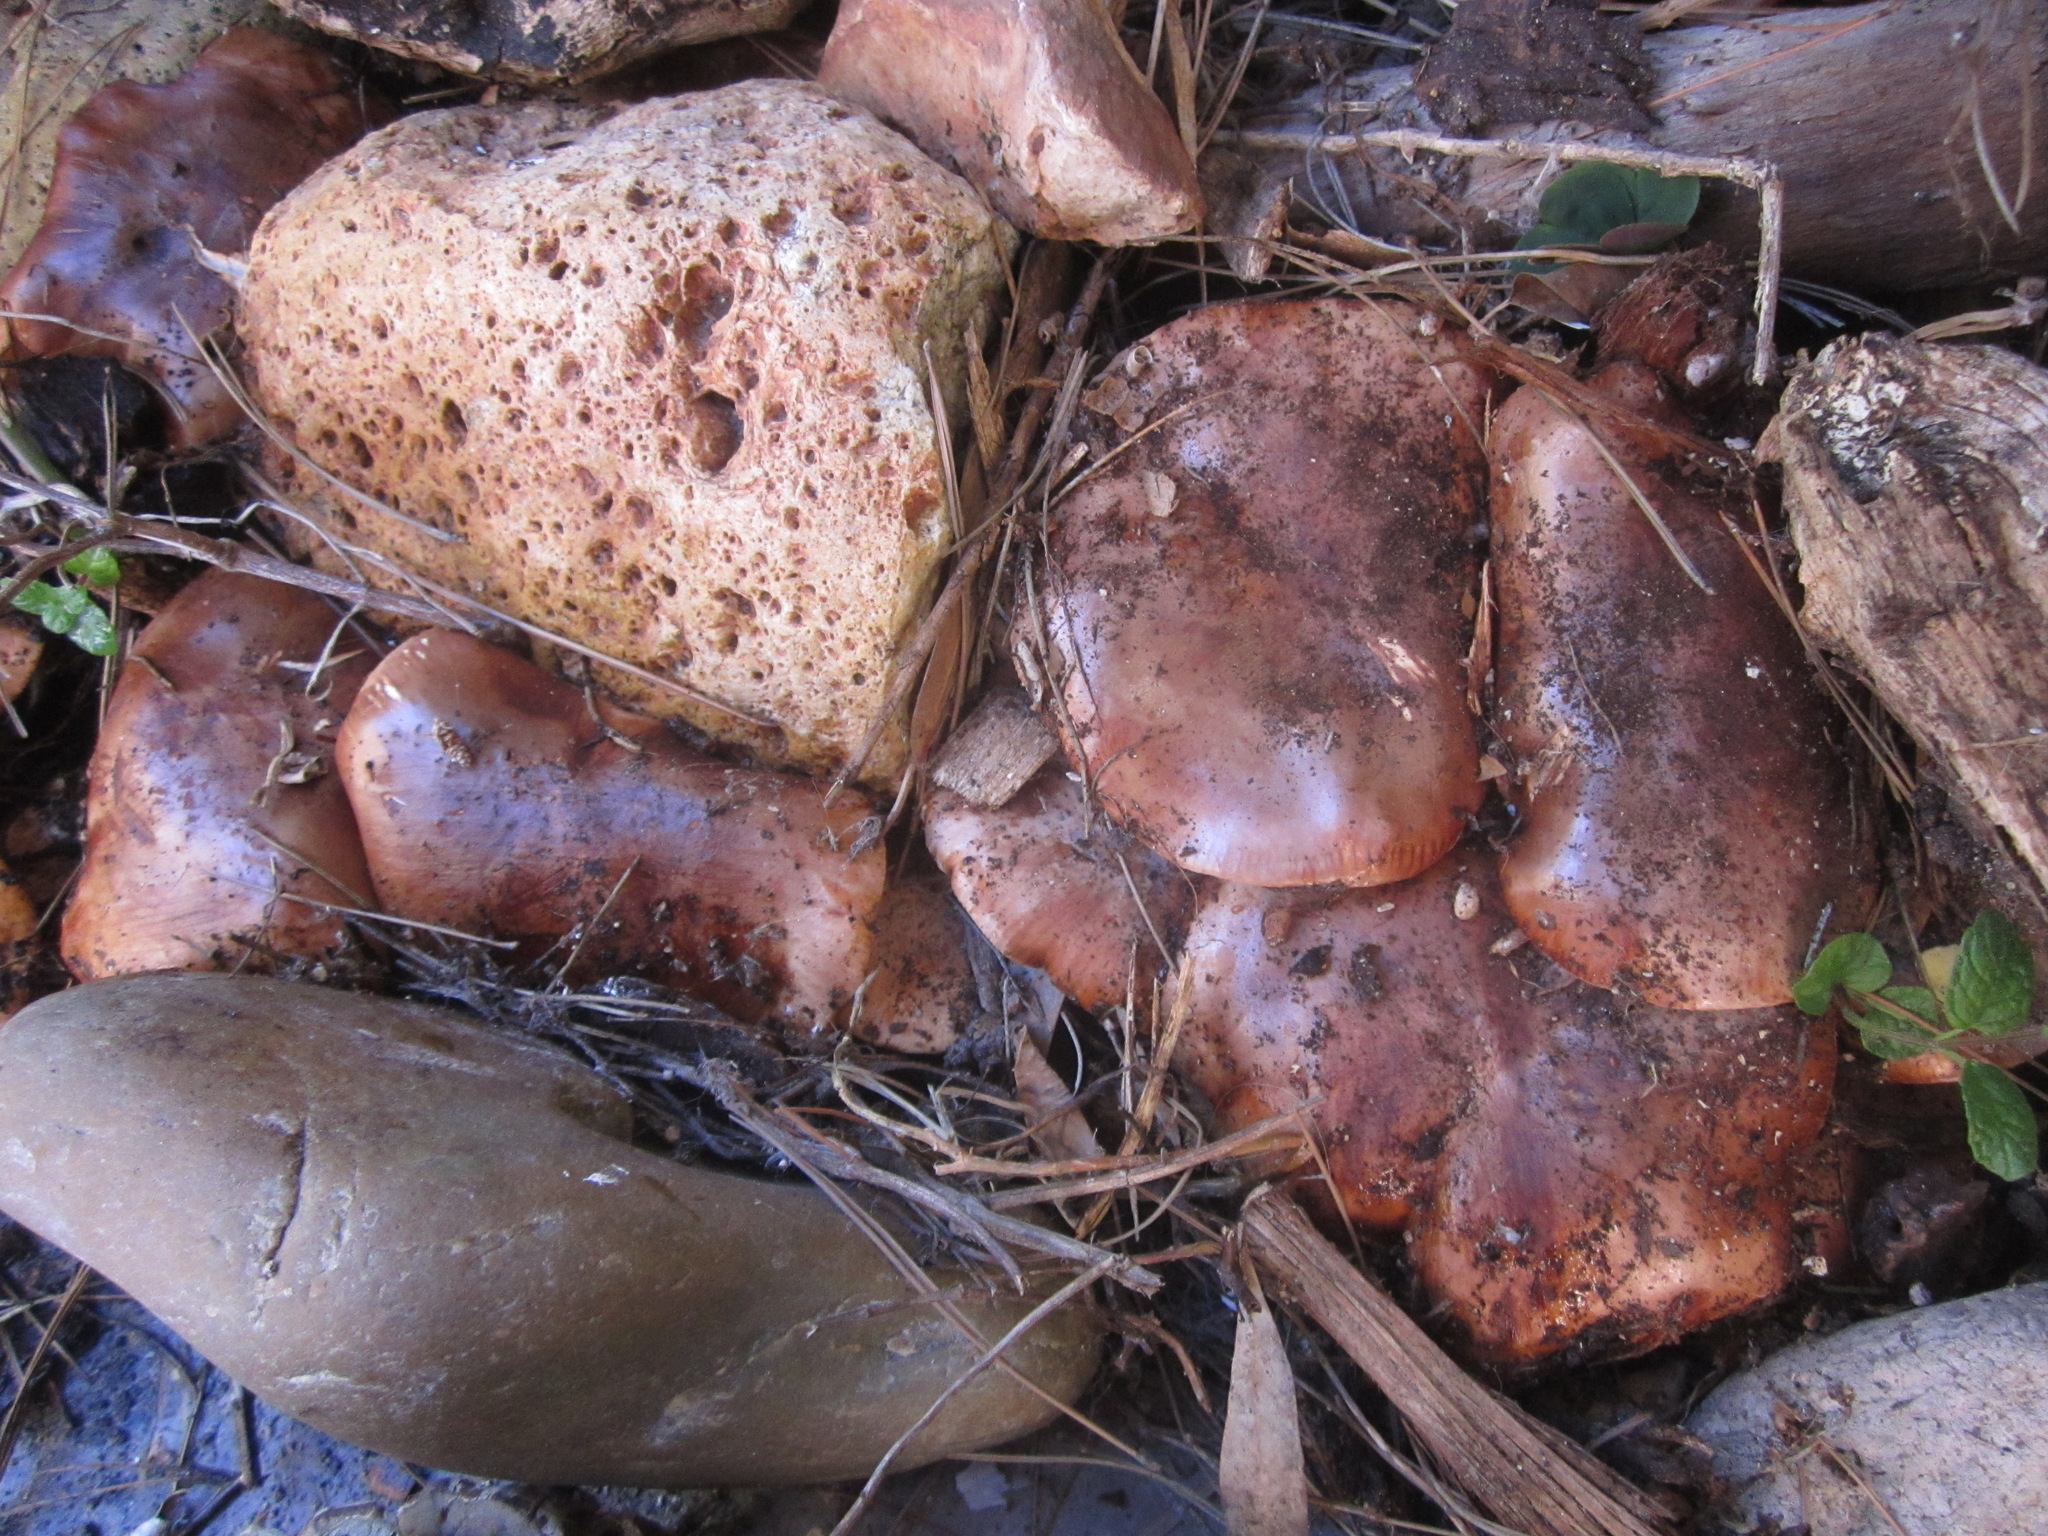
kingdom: Fungi
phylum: Basidiomycota
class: Agaricomycetes
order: Agaricales
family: Tricholomataceae
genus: Tricholoma
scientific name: Tricholoma fracticum
